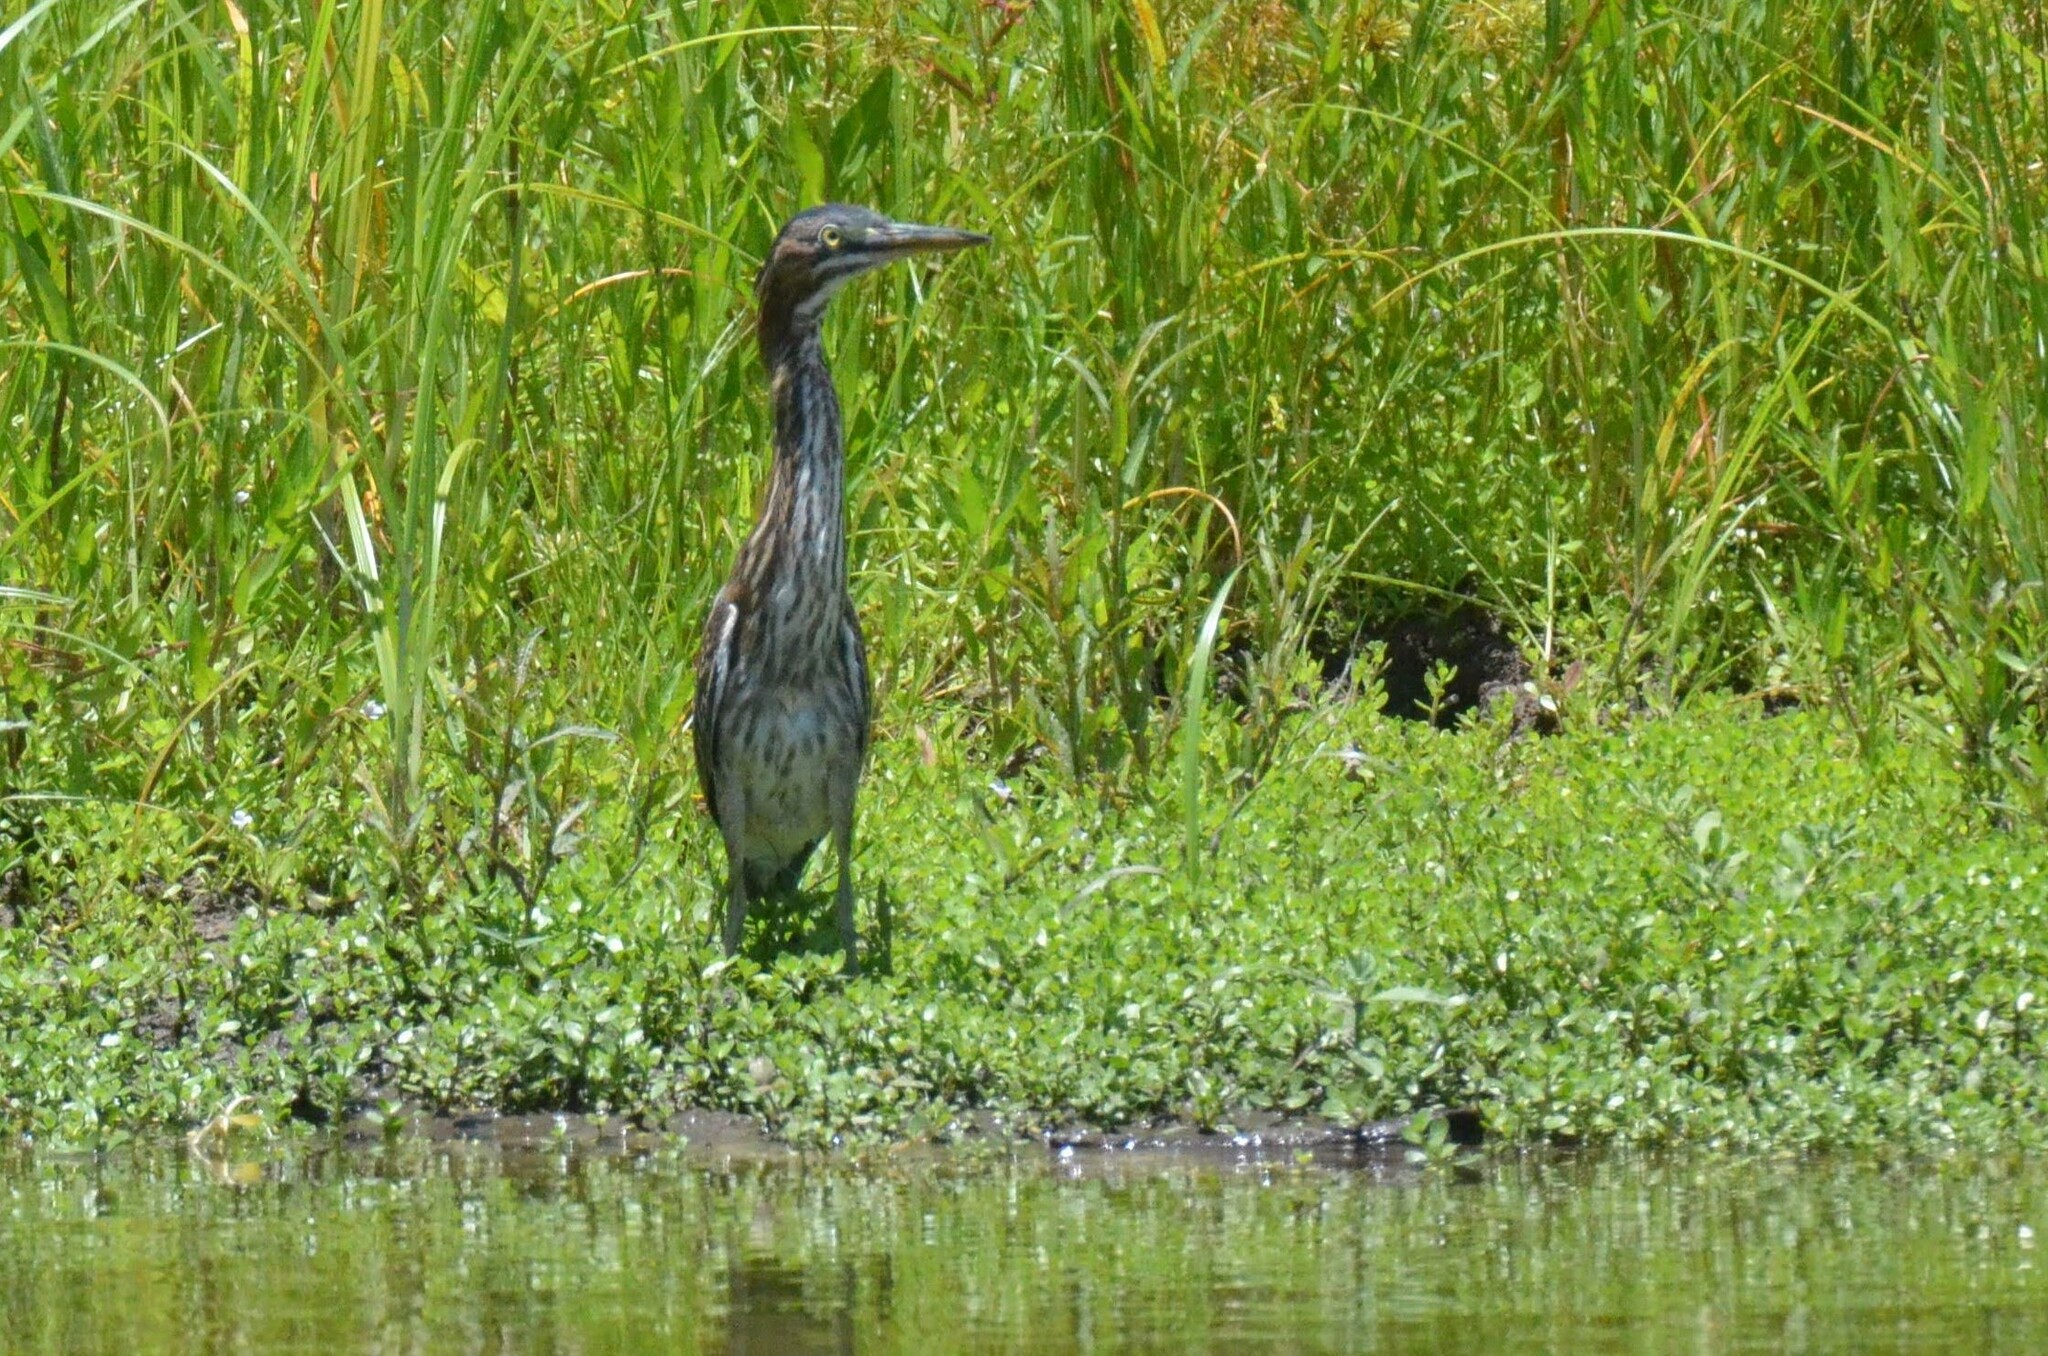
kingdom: Animalia
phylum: Chordata
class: Aves
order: Pelecaniformes
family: Ardeidae
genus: Butorides
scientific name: Butorides virescens
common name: Green heron
